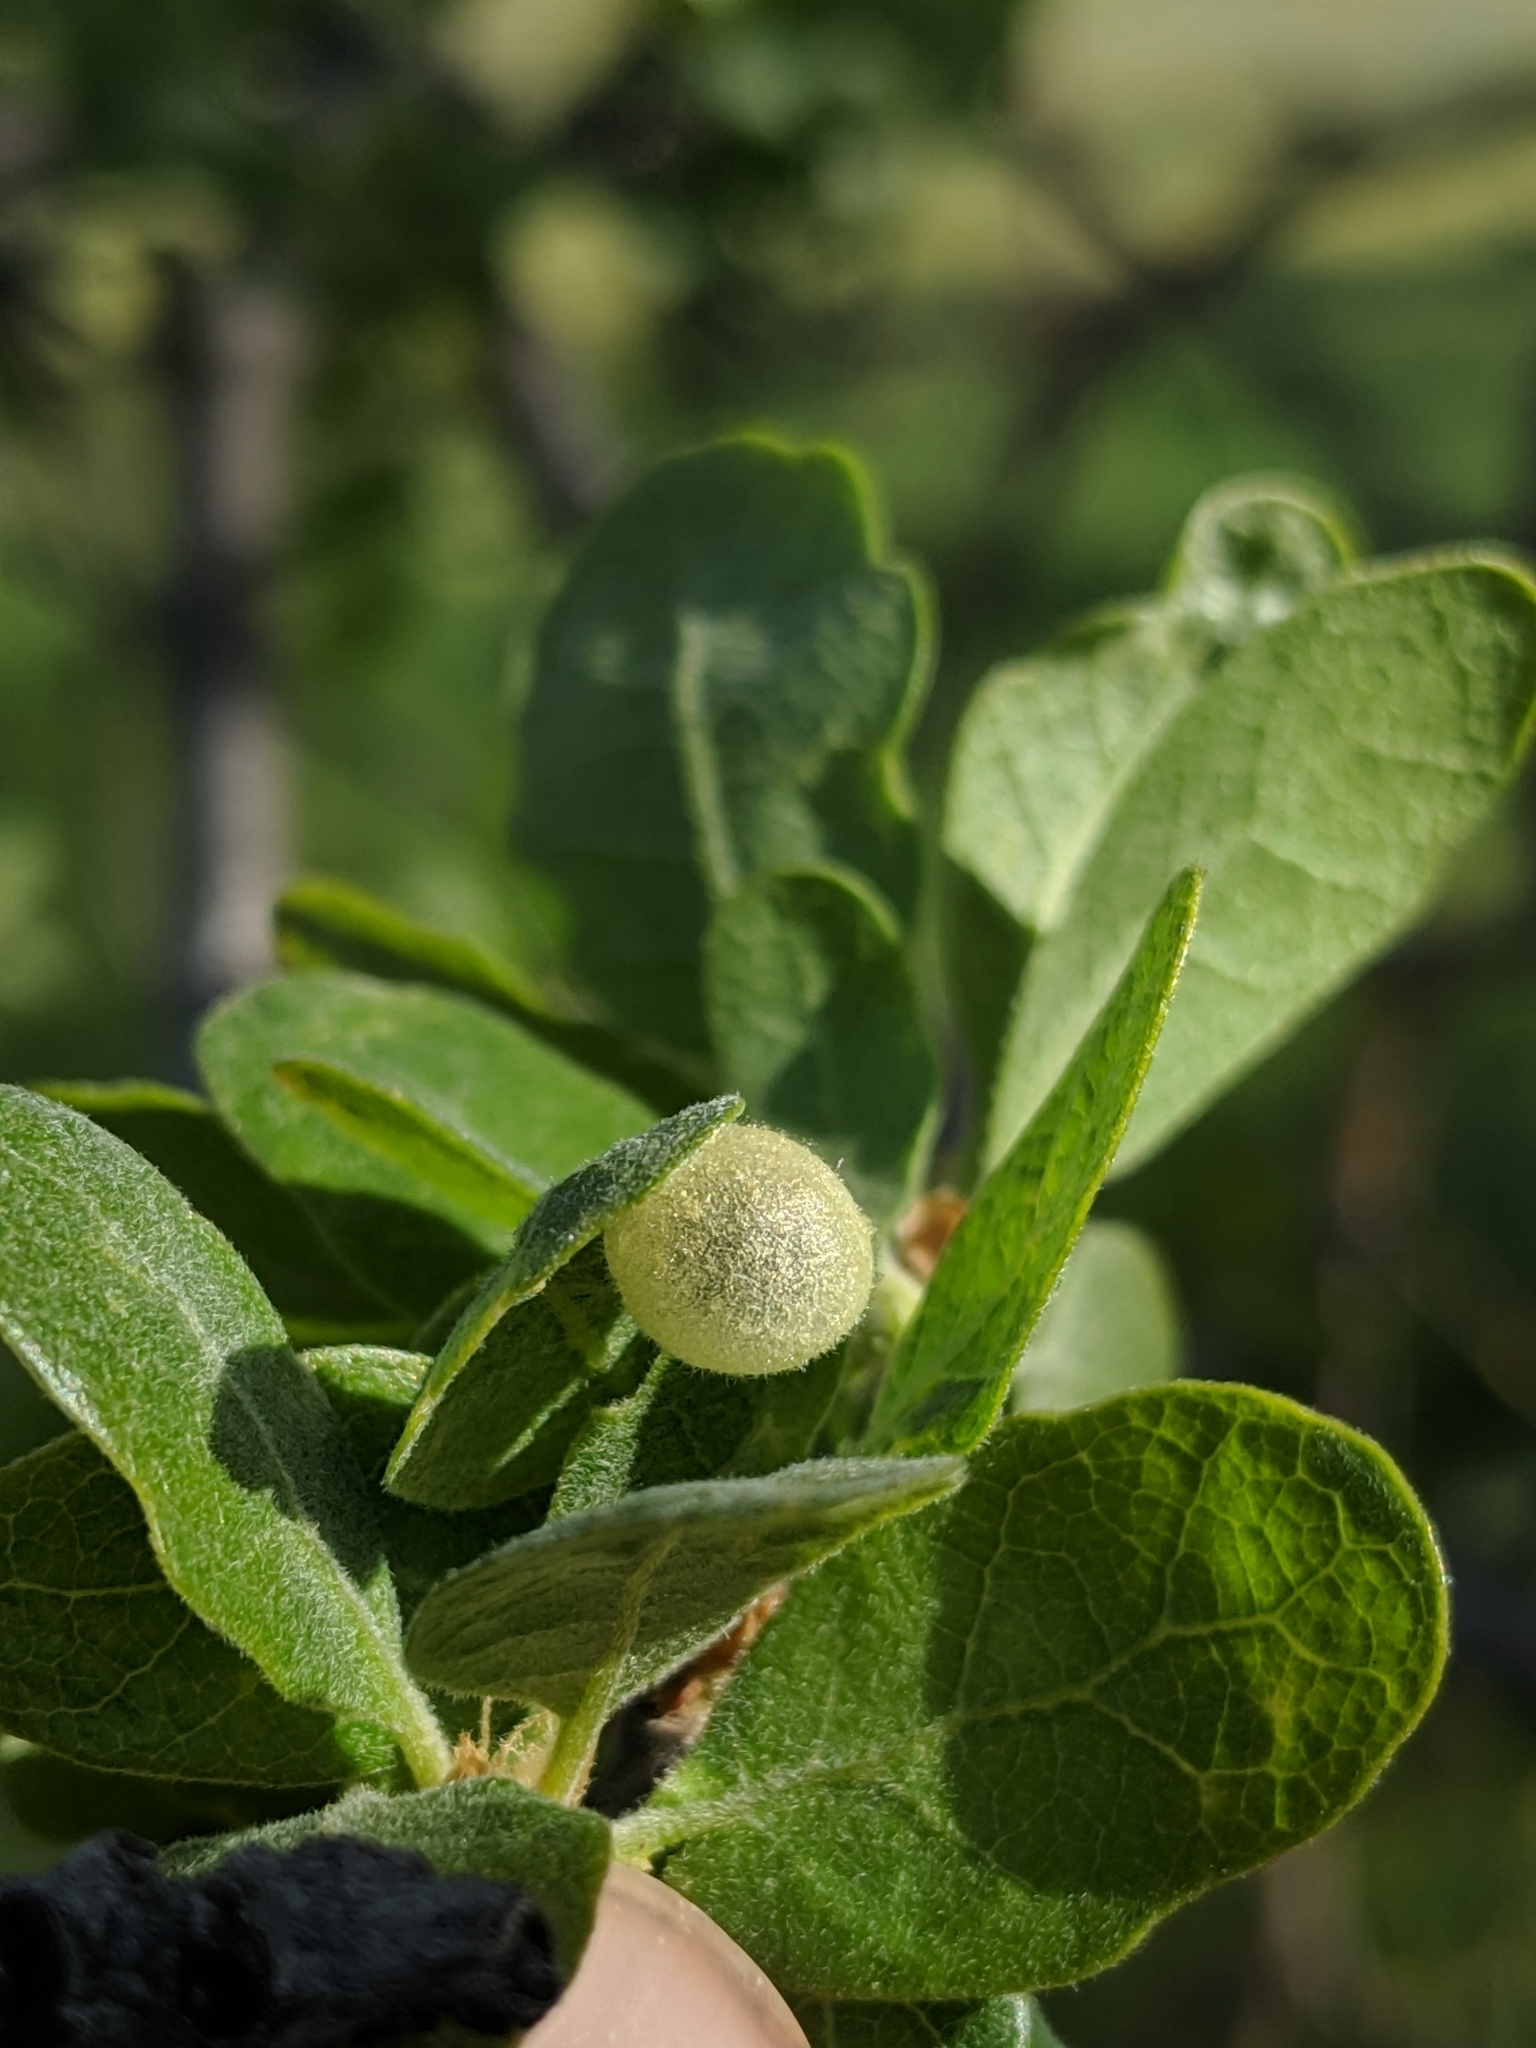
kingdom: Animalia
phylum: Arthropoda
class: Insecta
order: Hymenoptera
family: Cynipidae
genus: Andricus
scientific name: Andricus
